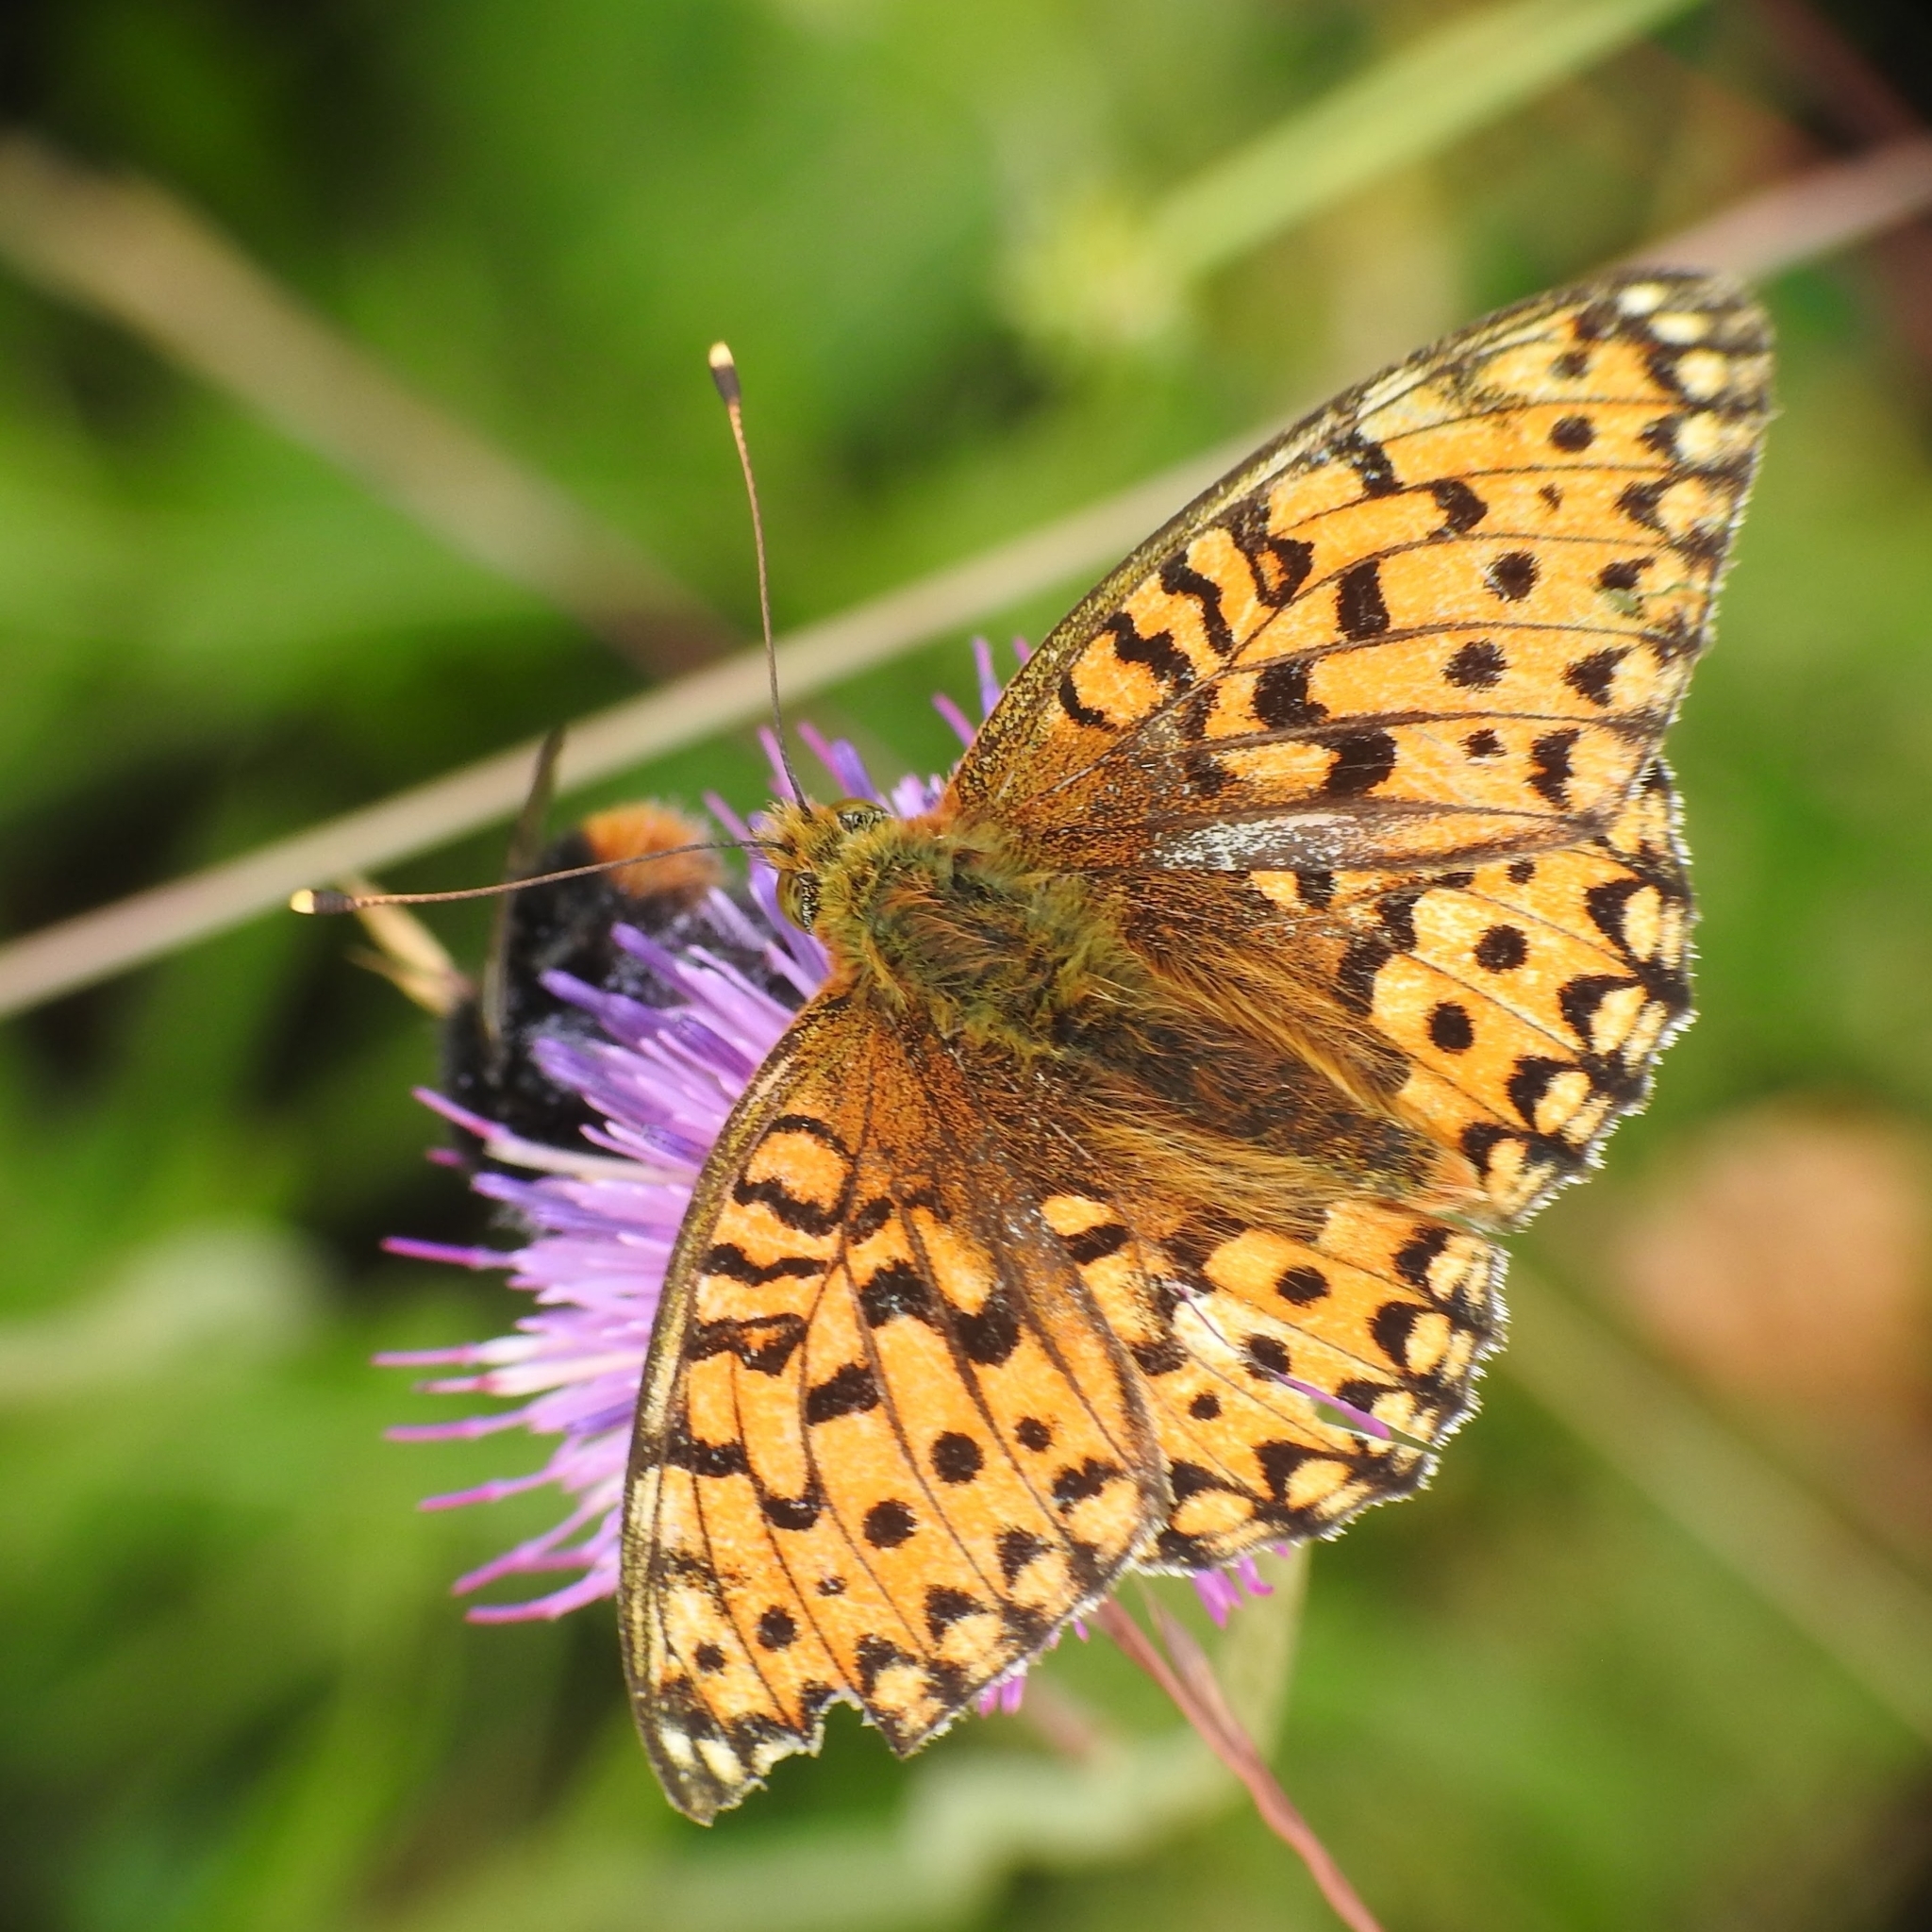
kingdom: Animalia
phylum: Arthropoda
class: Insecta
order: Lepidoptera
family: Nymphalidae
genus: Speyeria
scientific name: Speyeria aglaja
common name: Dark green fritillary
